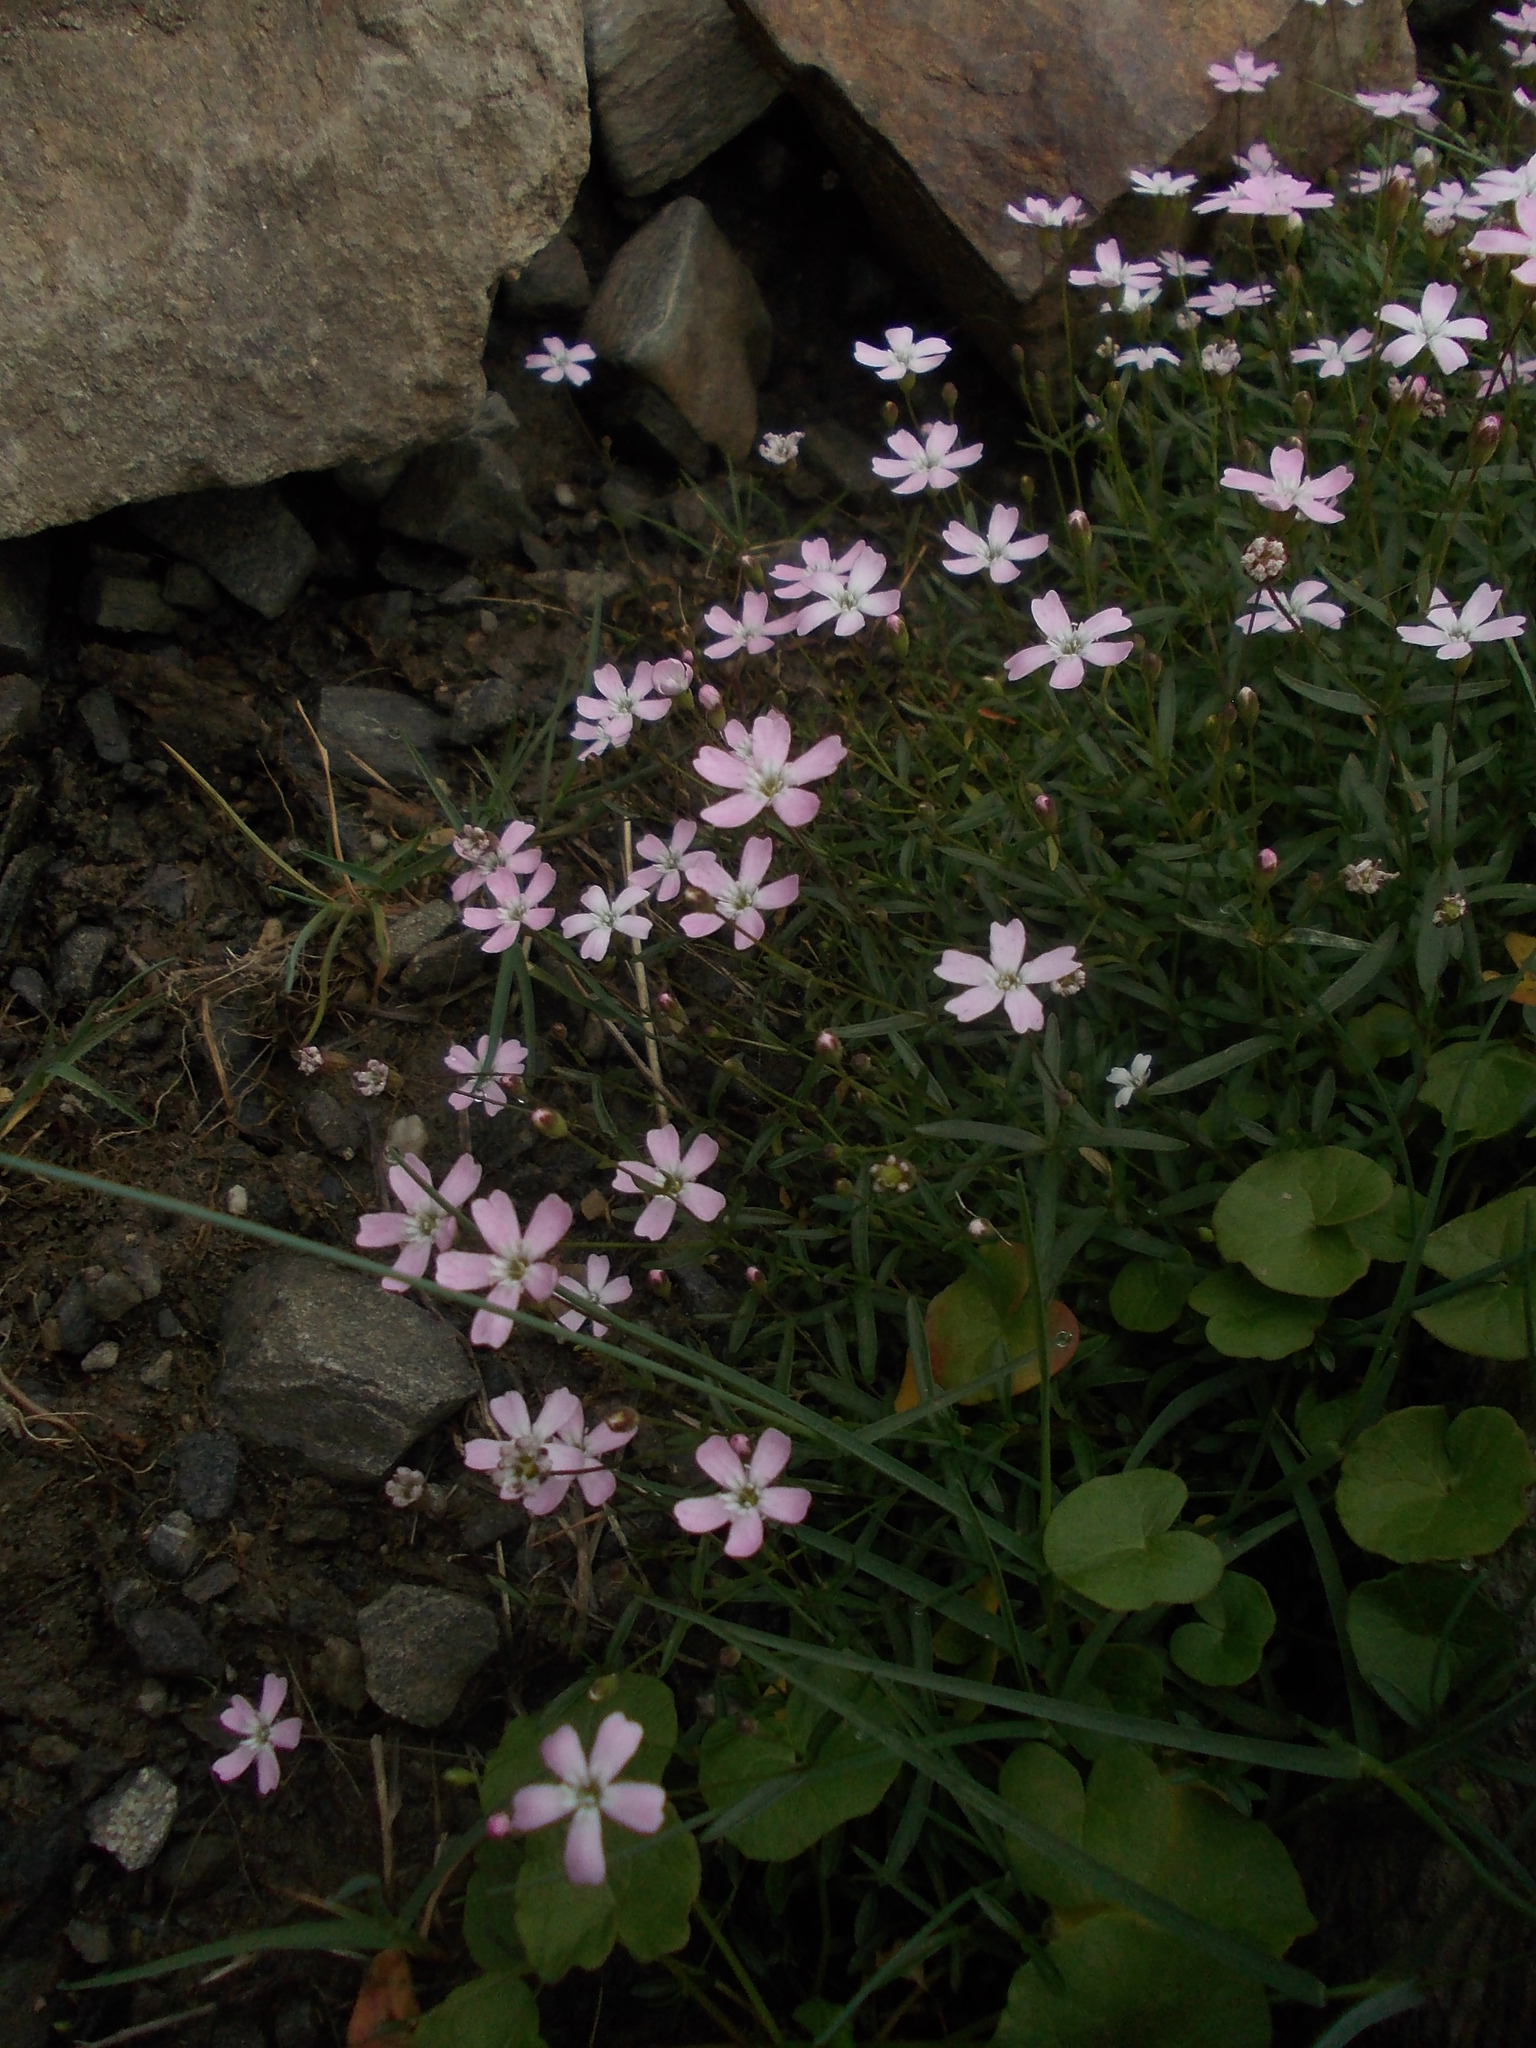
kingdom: Plantae
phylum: Tracheophyta
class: Magnoliopsida
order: Caryophyllales
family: Caryophyllaceae
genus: Heliosperma
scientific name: Heliosperma pudibundum
